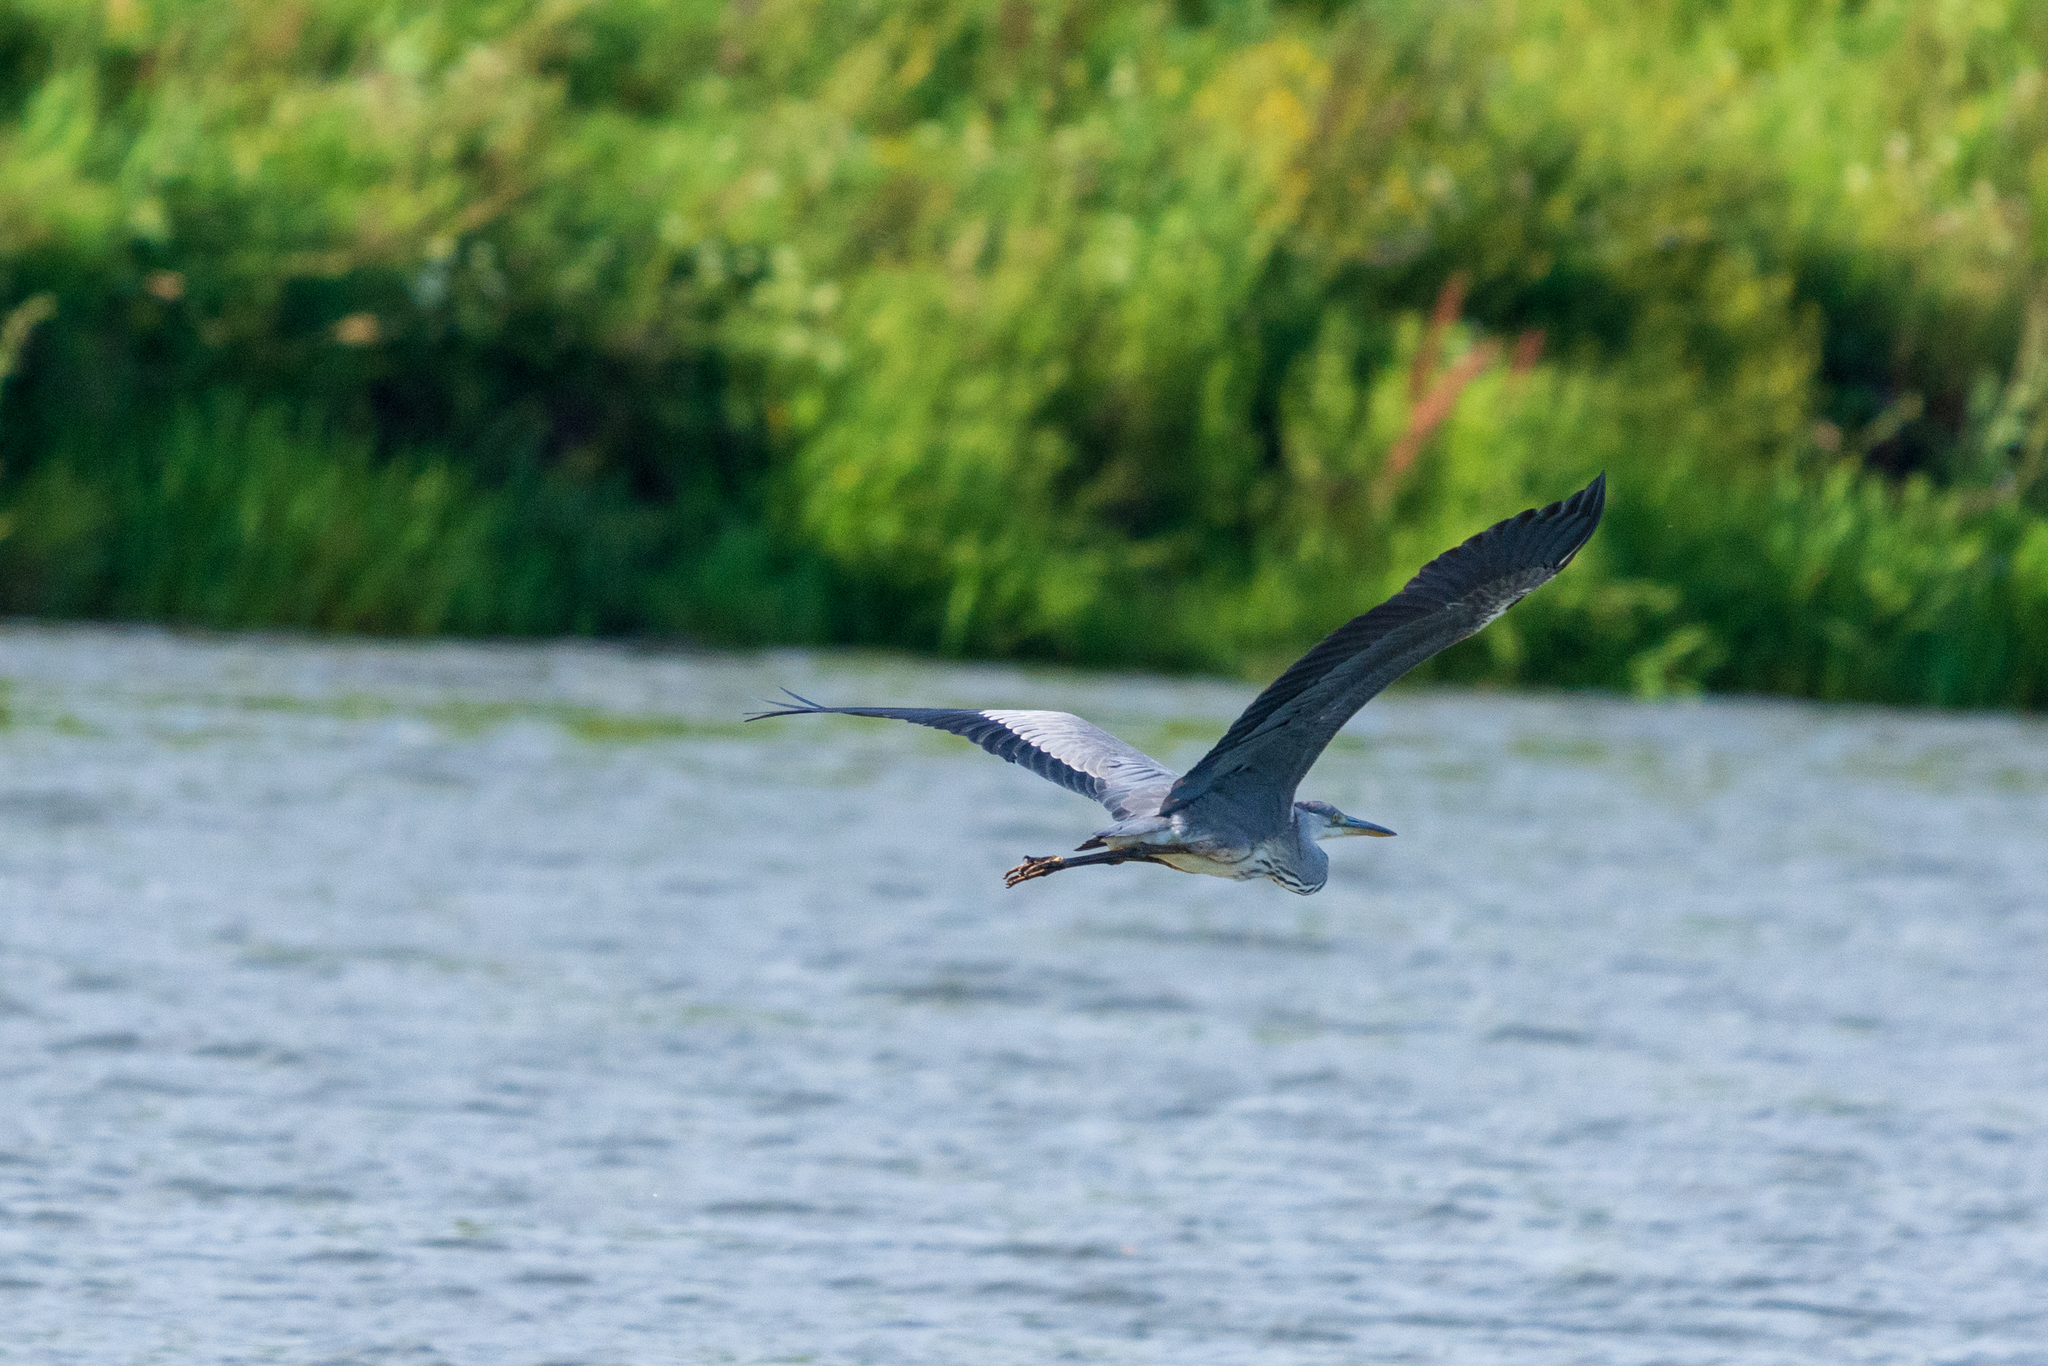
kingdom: Animalia
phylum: Chordata
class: Aves
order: Pelecaniformes
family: Ardeidae
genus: Ardea
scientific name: Ardea cinerea
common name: Grey heron
